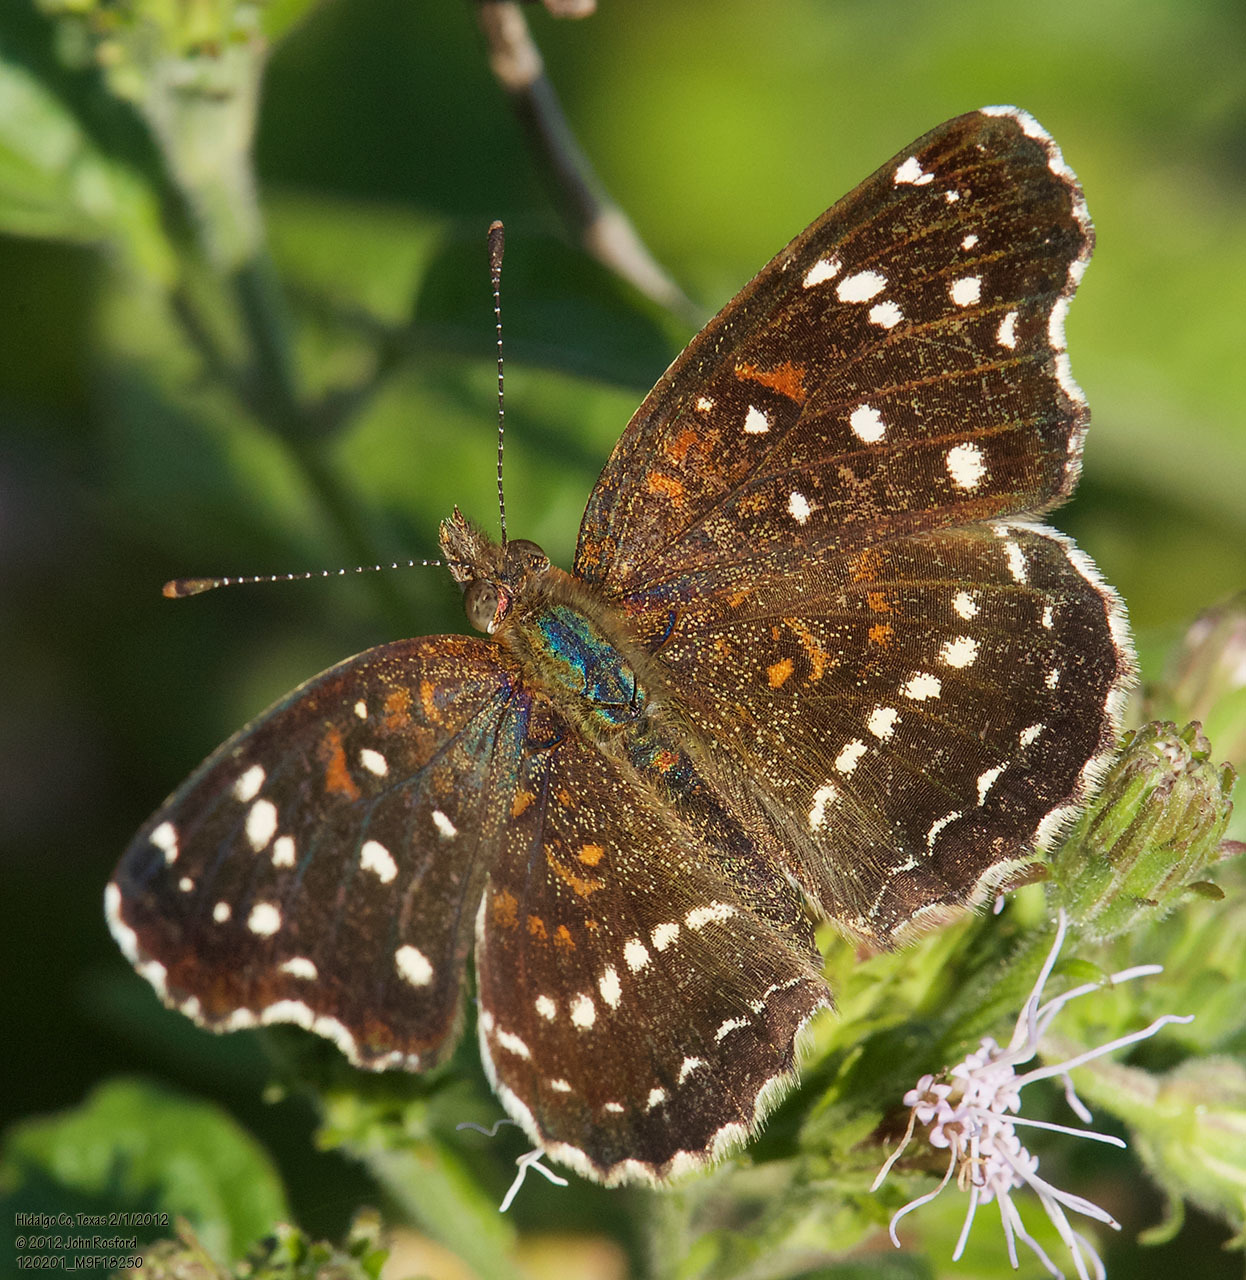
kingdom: Animalia
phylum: Arthropoda
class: Insecta
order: Lepidoptera
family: Nymphalidae
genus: Anthanassa
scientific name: Anthanassa texana
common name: Texan crescent
